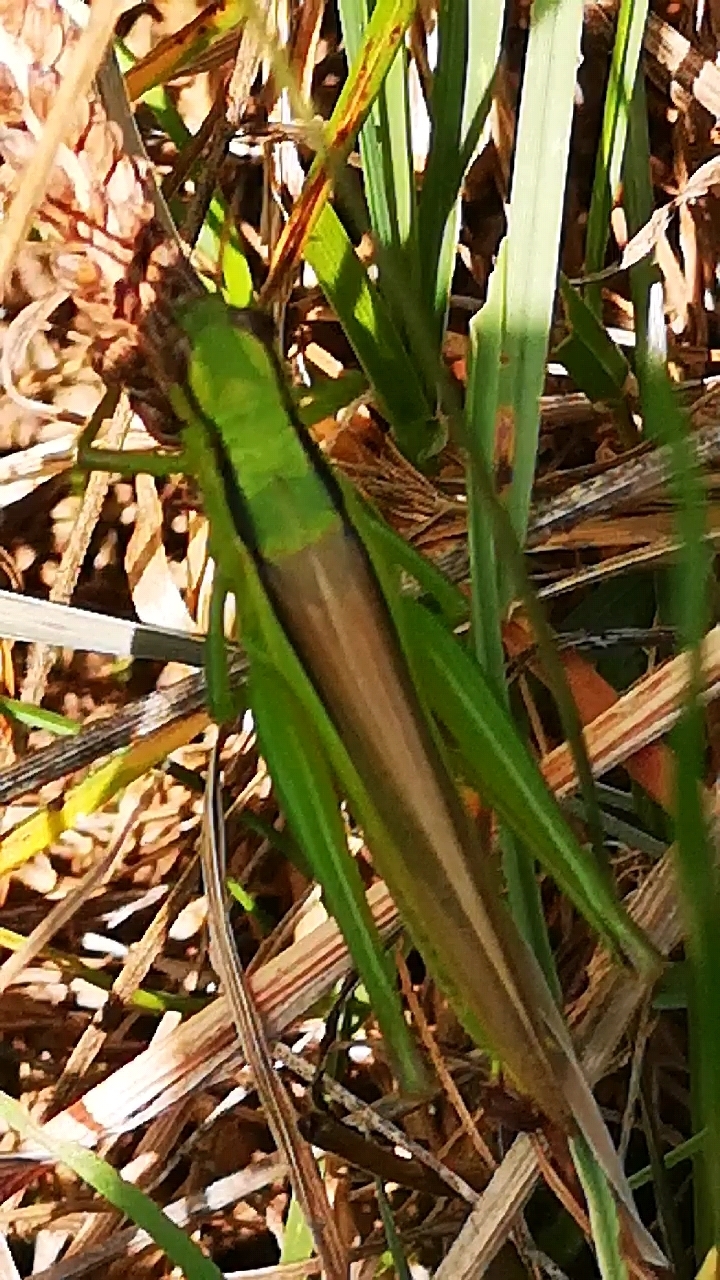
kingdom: Animalia
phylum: Arthropoda
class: Insecta
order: Orthoptera
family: Acrididae
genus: Mecostethus
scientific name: Mecostethus parapleurus
